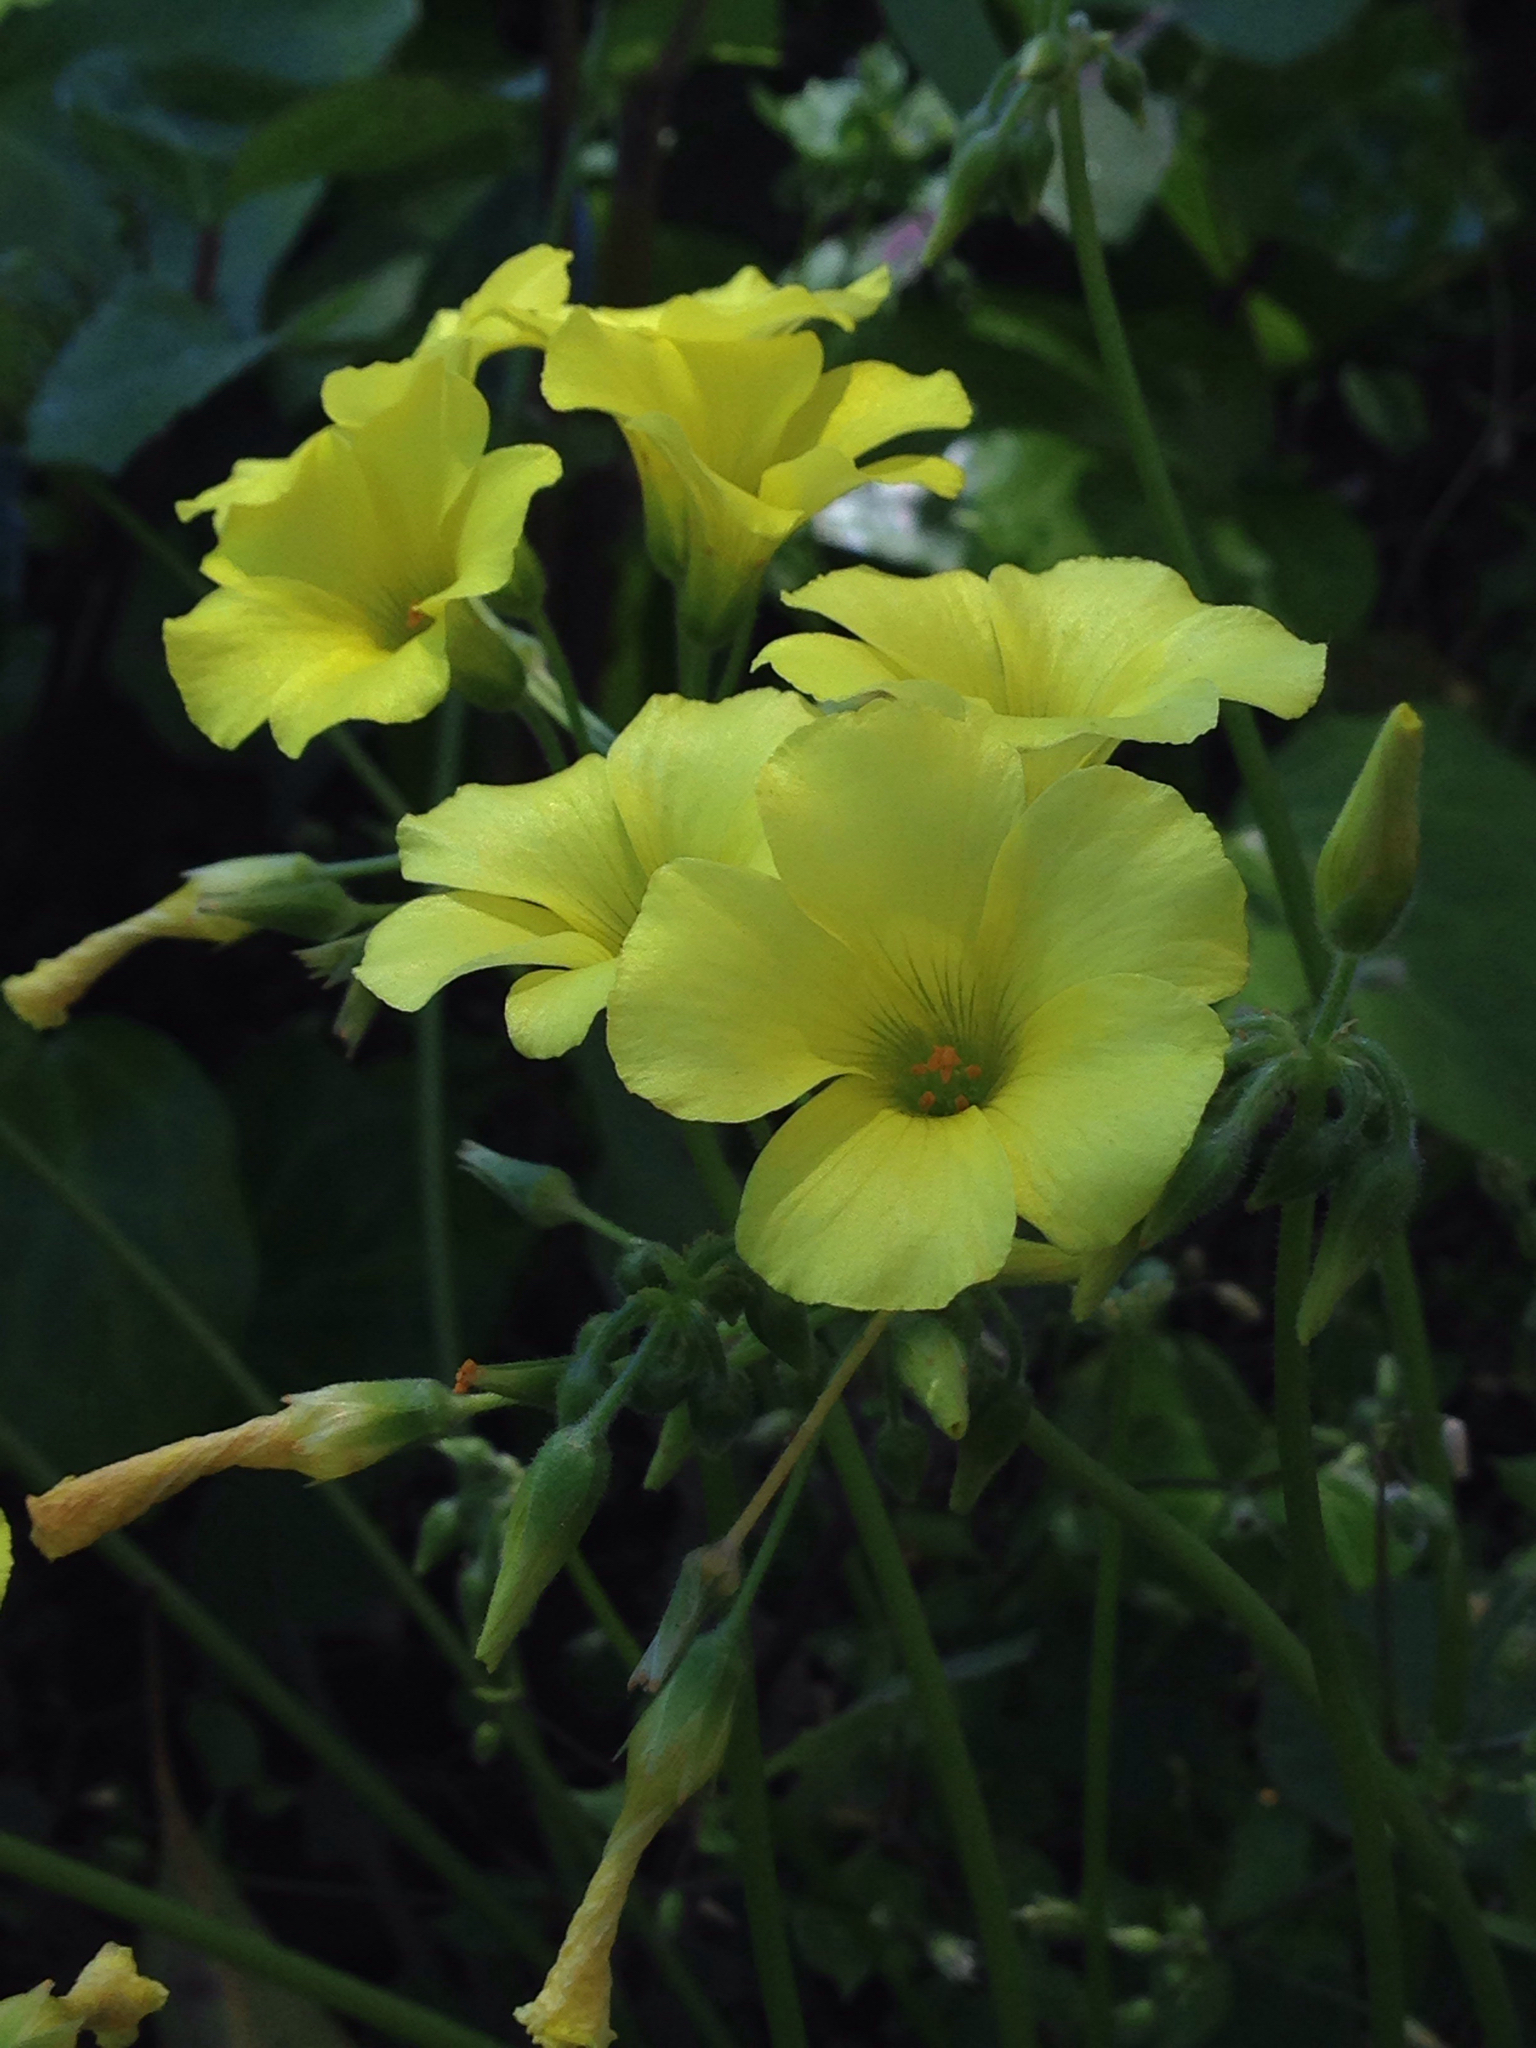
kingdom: Plantae
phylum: Tracheophyta
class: Magnoliopsida
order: Oxalidales
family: Oxalidaceae
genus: Oxalis
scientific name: Oxalis pes-caprae
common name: Bermuda-buttercup
